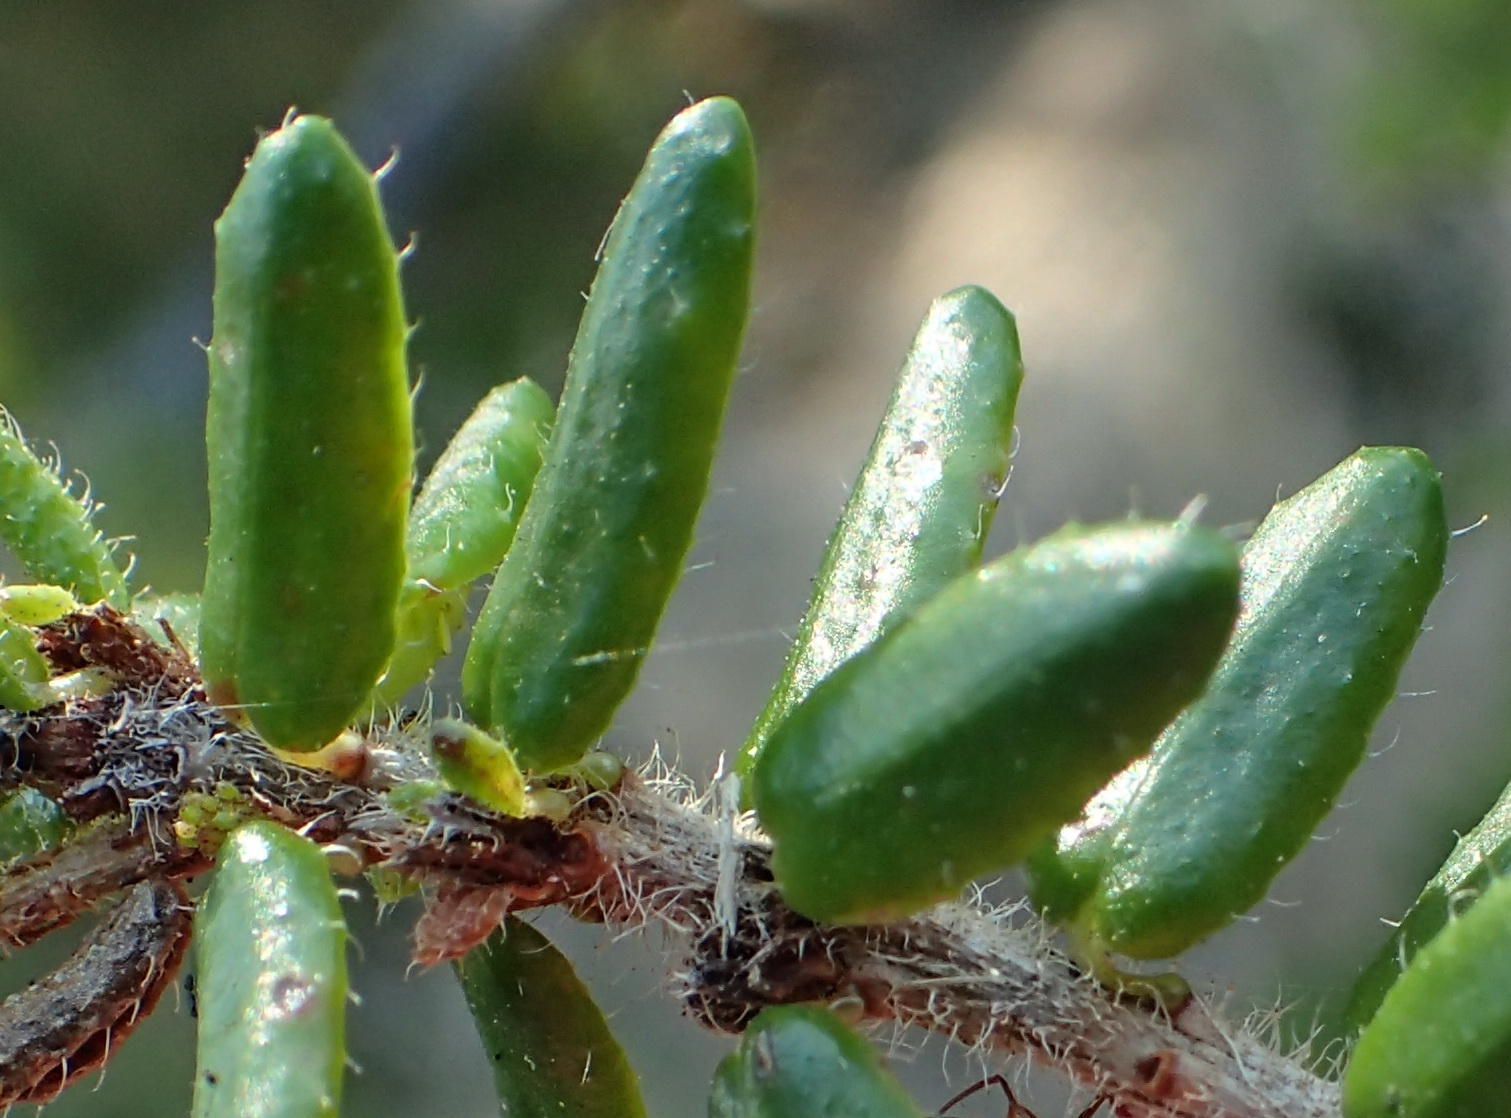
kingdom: Plantae
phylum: Tracheophyta
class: Magnoliopsida
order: Ericales
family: Ericaceae
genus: Erica
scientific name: Erica glandulosa
